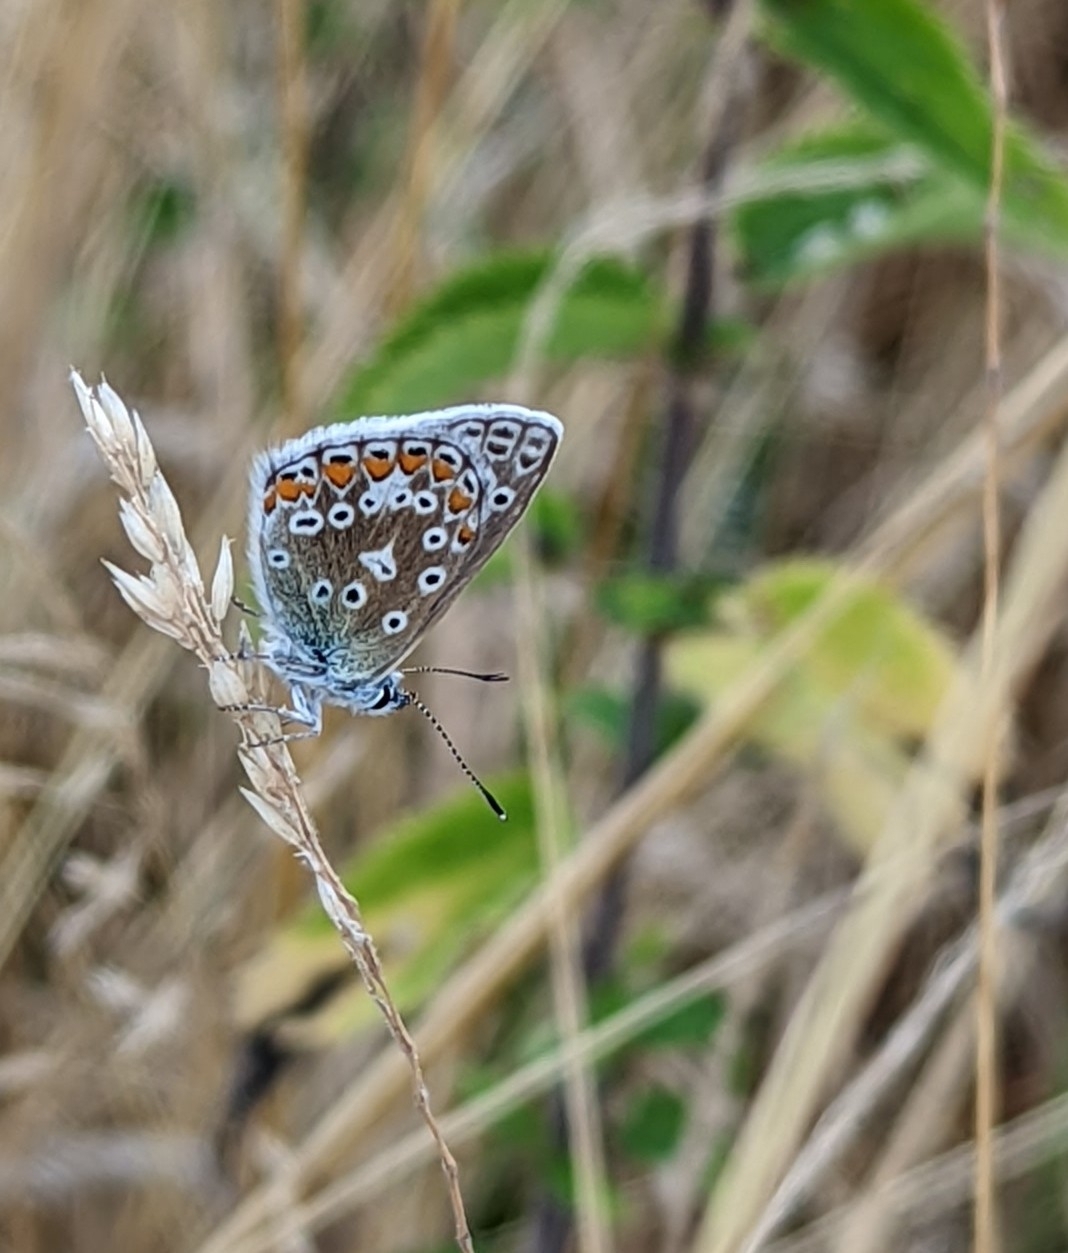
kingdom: Animalia
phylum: Arthropoda
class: Insecta
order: Lepidoptera
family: Lycaenidae
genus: Polyommatus
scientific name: Polyommatus icarus
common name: Common blue
